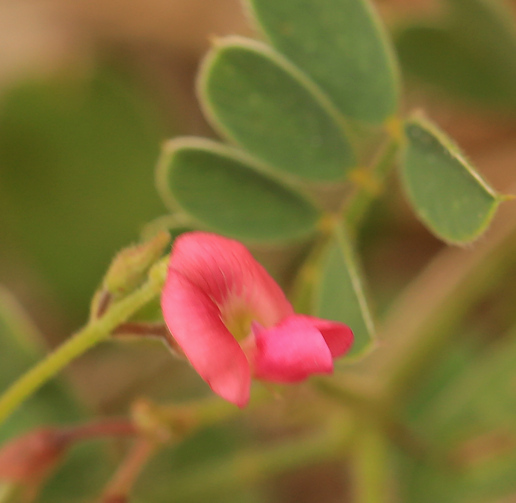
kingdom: Plantae
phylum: Tracheophyta
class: Magnoliopsida
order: Fabales
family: Fabaceae
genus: Tephrosia
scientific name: Tephrosia purpurea
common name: Fishpoison
